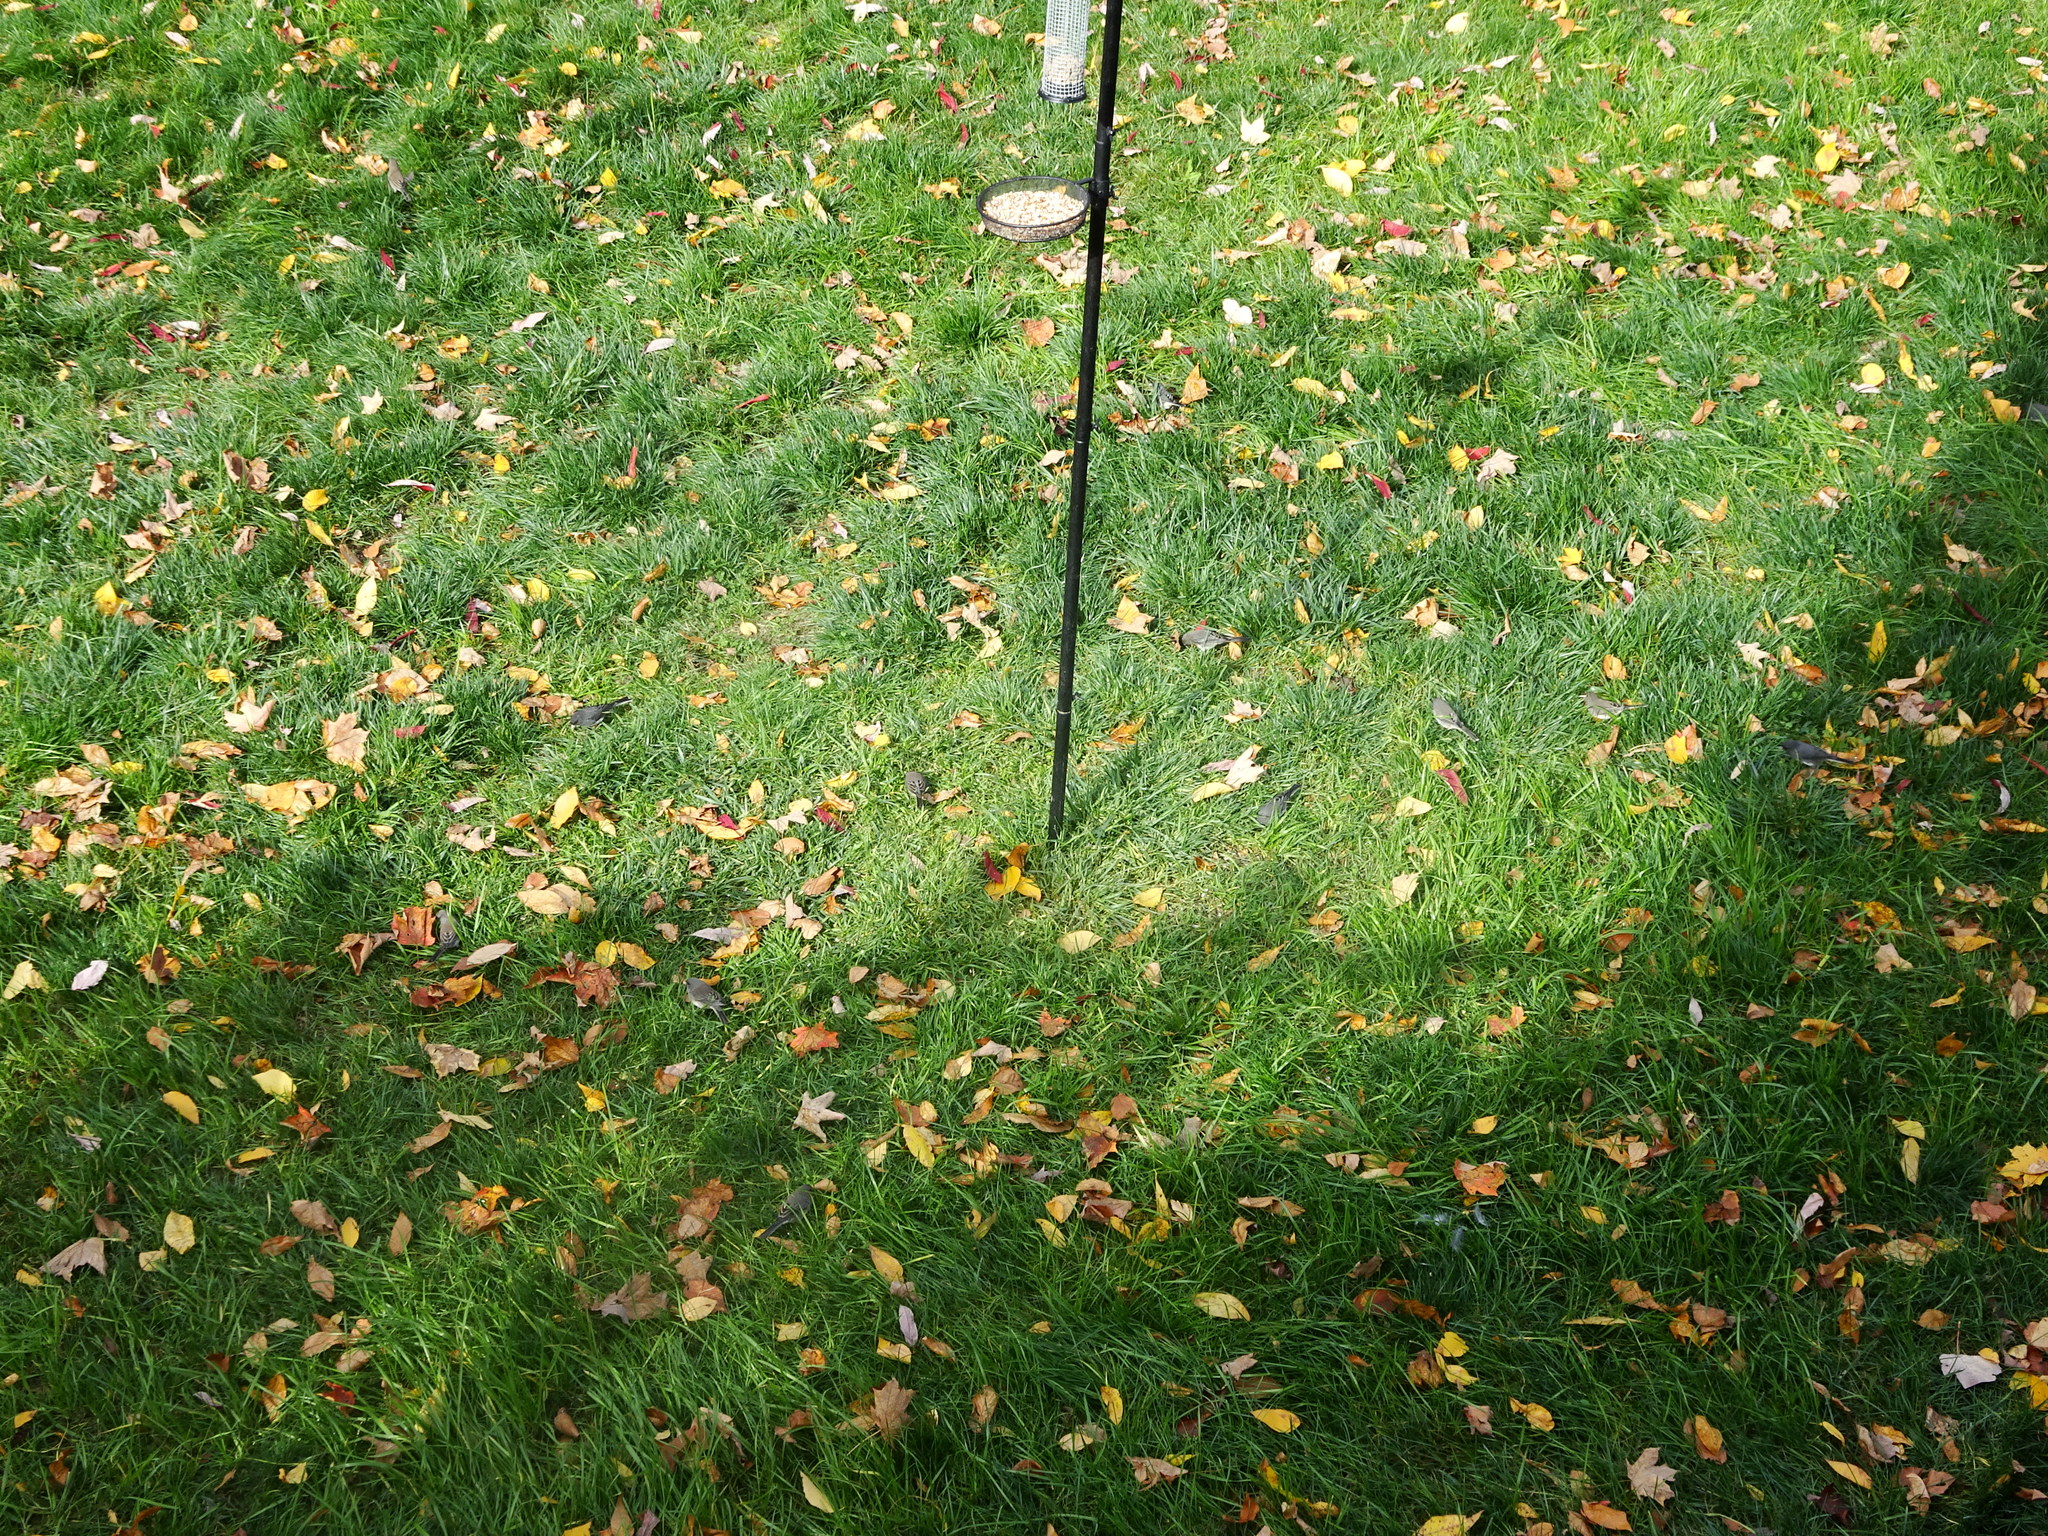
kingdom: Animalia
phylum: Chordata
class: Aves
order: Passeriformes
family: Passerellidae
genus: Junco
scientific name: Junco hyemalis
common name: Dark-eyed junco
